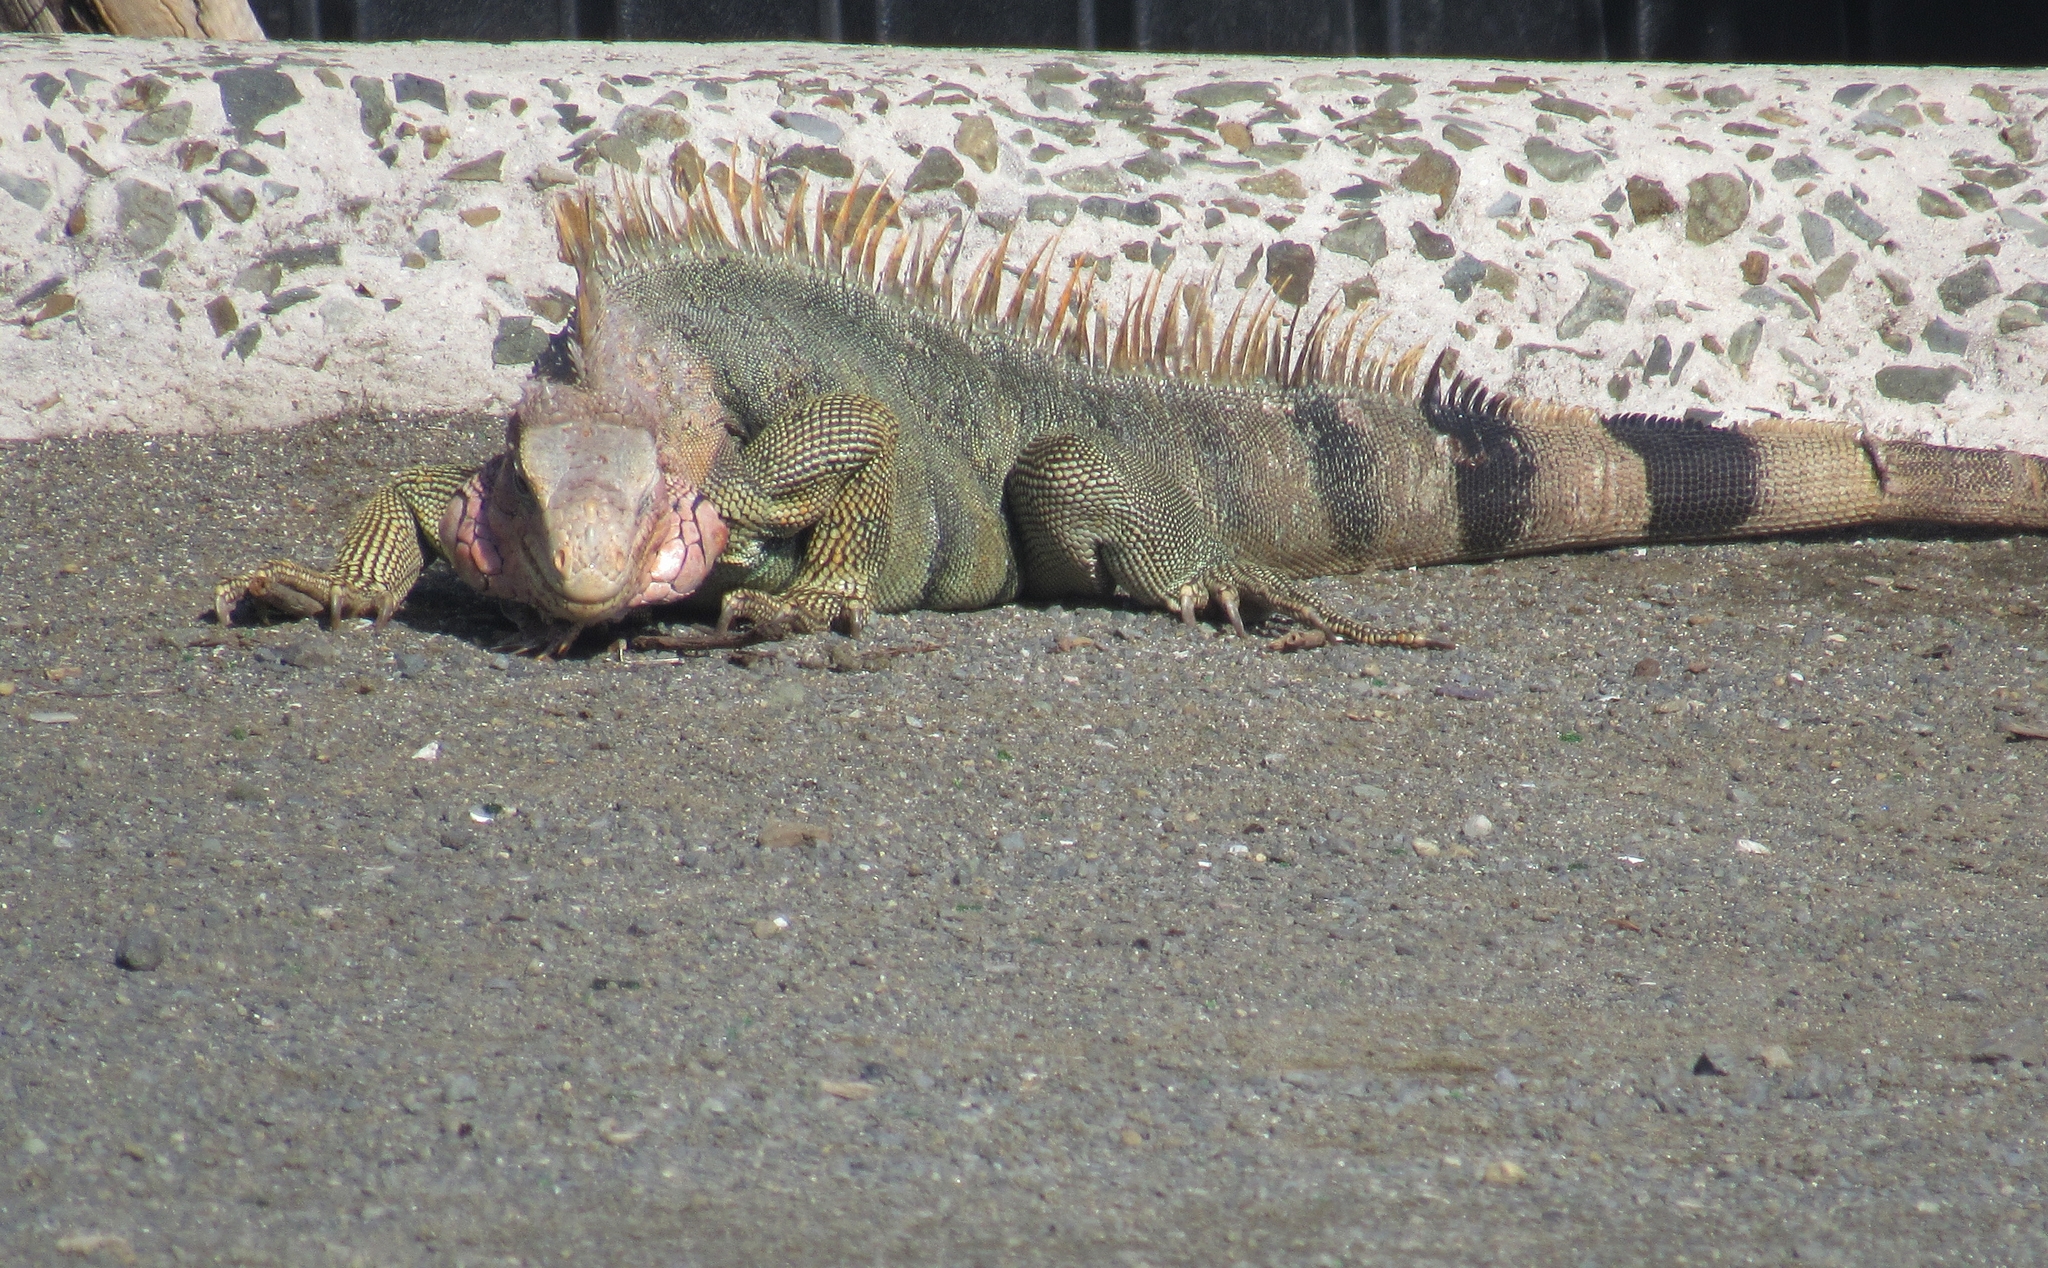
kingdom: Animalia
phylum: Chordata
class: Squamata
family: Iguanidae
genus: Iguana
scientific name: Iguana iguana
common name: Green iguana
